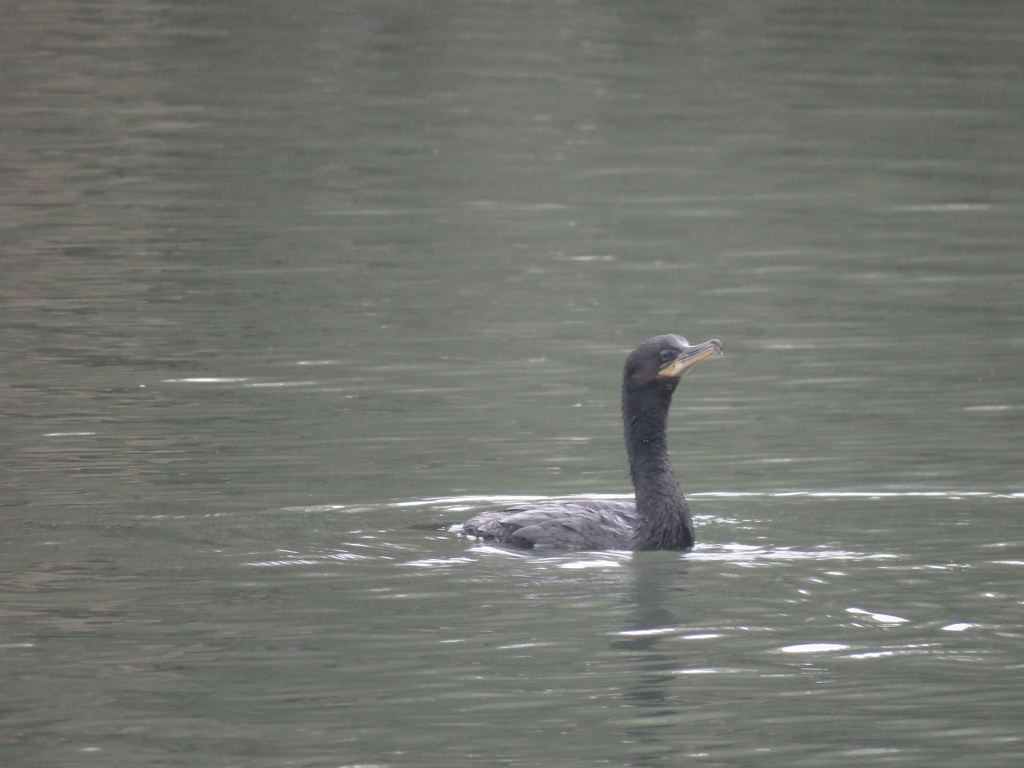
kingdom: Animalia
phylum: Chordata
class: Aves
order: Suliformes
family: Phalacrocoracidae
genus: Phalacrocorax
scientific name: Phalacrocorax brasilianus
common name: Neotropic cormorant
